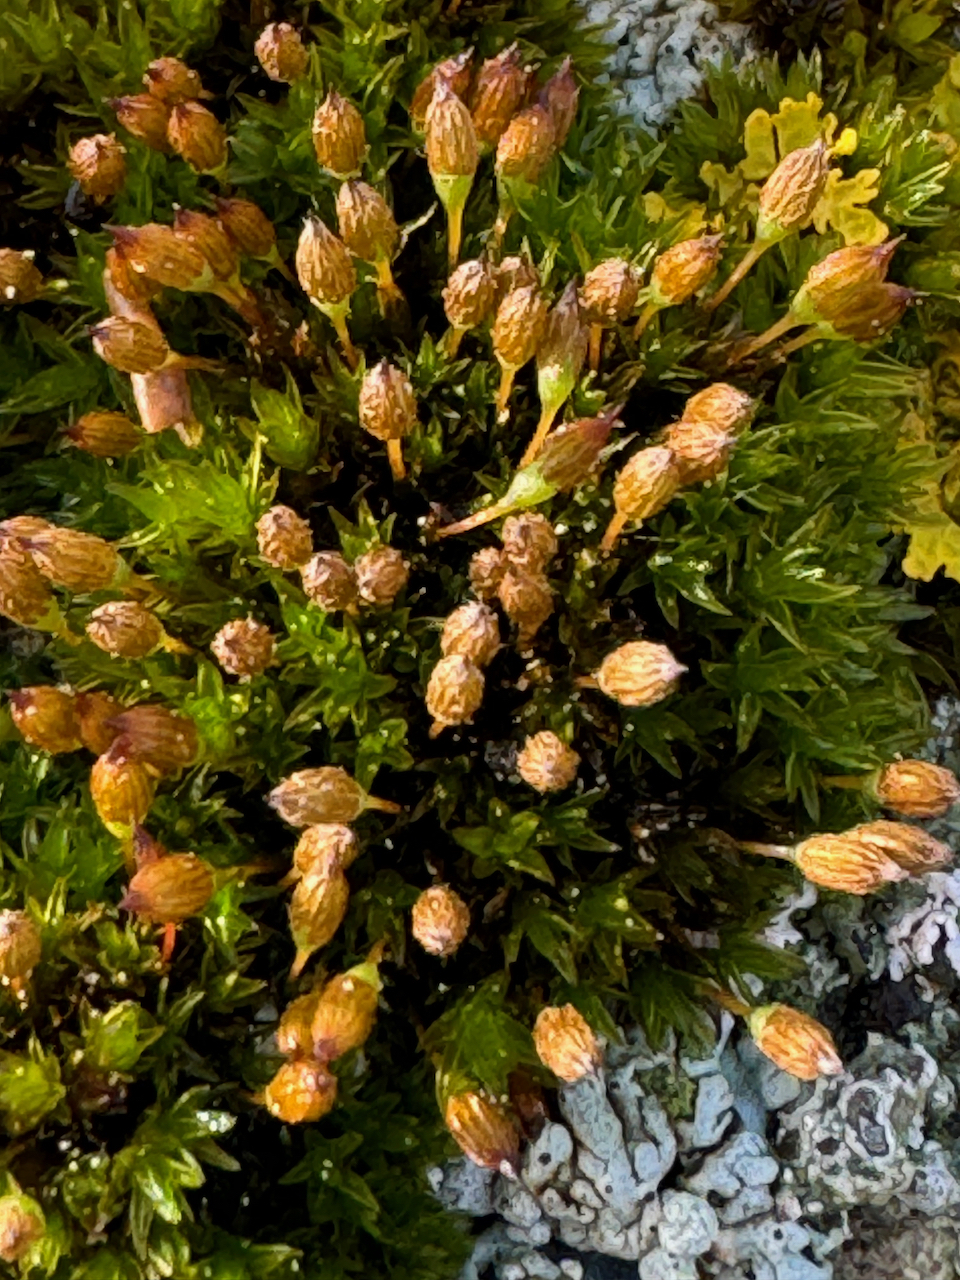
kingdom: Plantae
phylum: Bryophyta
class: Bryopsida
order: Orthotrichales
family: Orthotrichaceae
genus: Orthotrichum
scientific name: Orthotrichum anomalum
